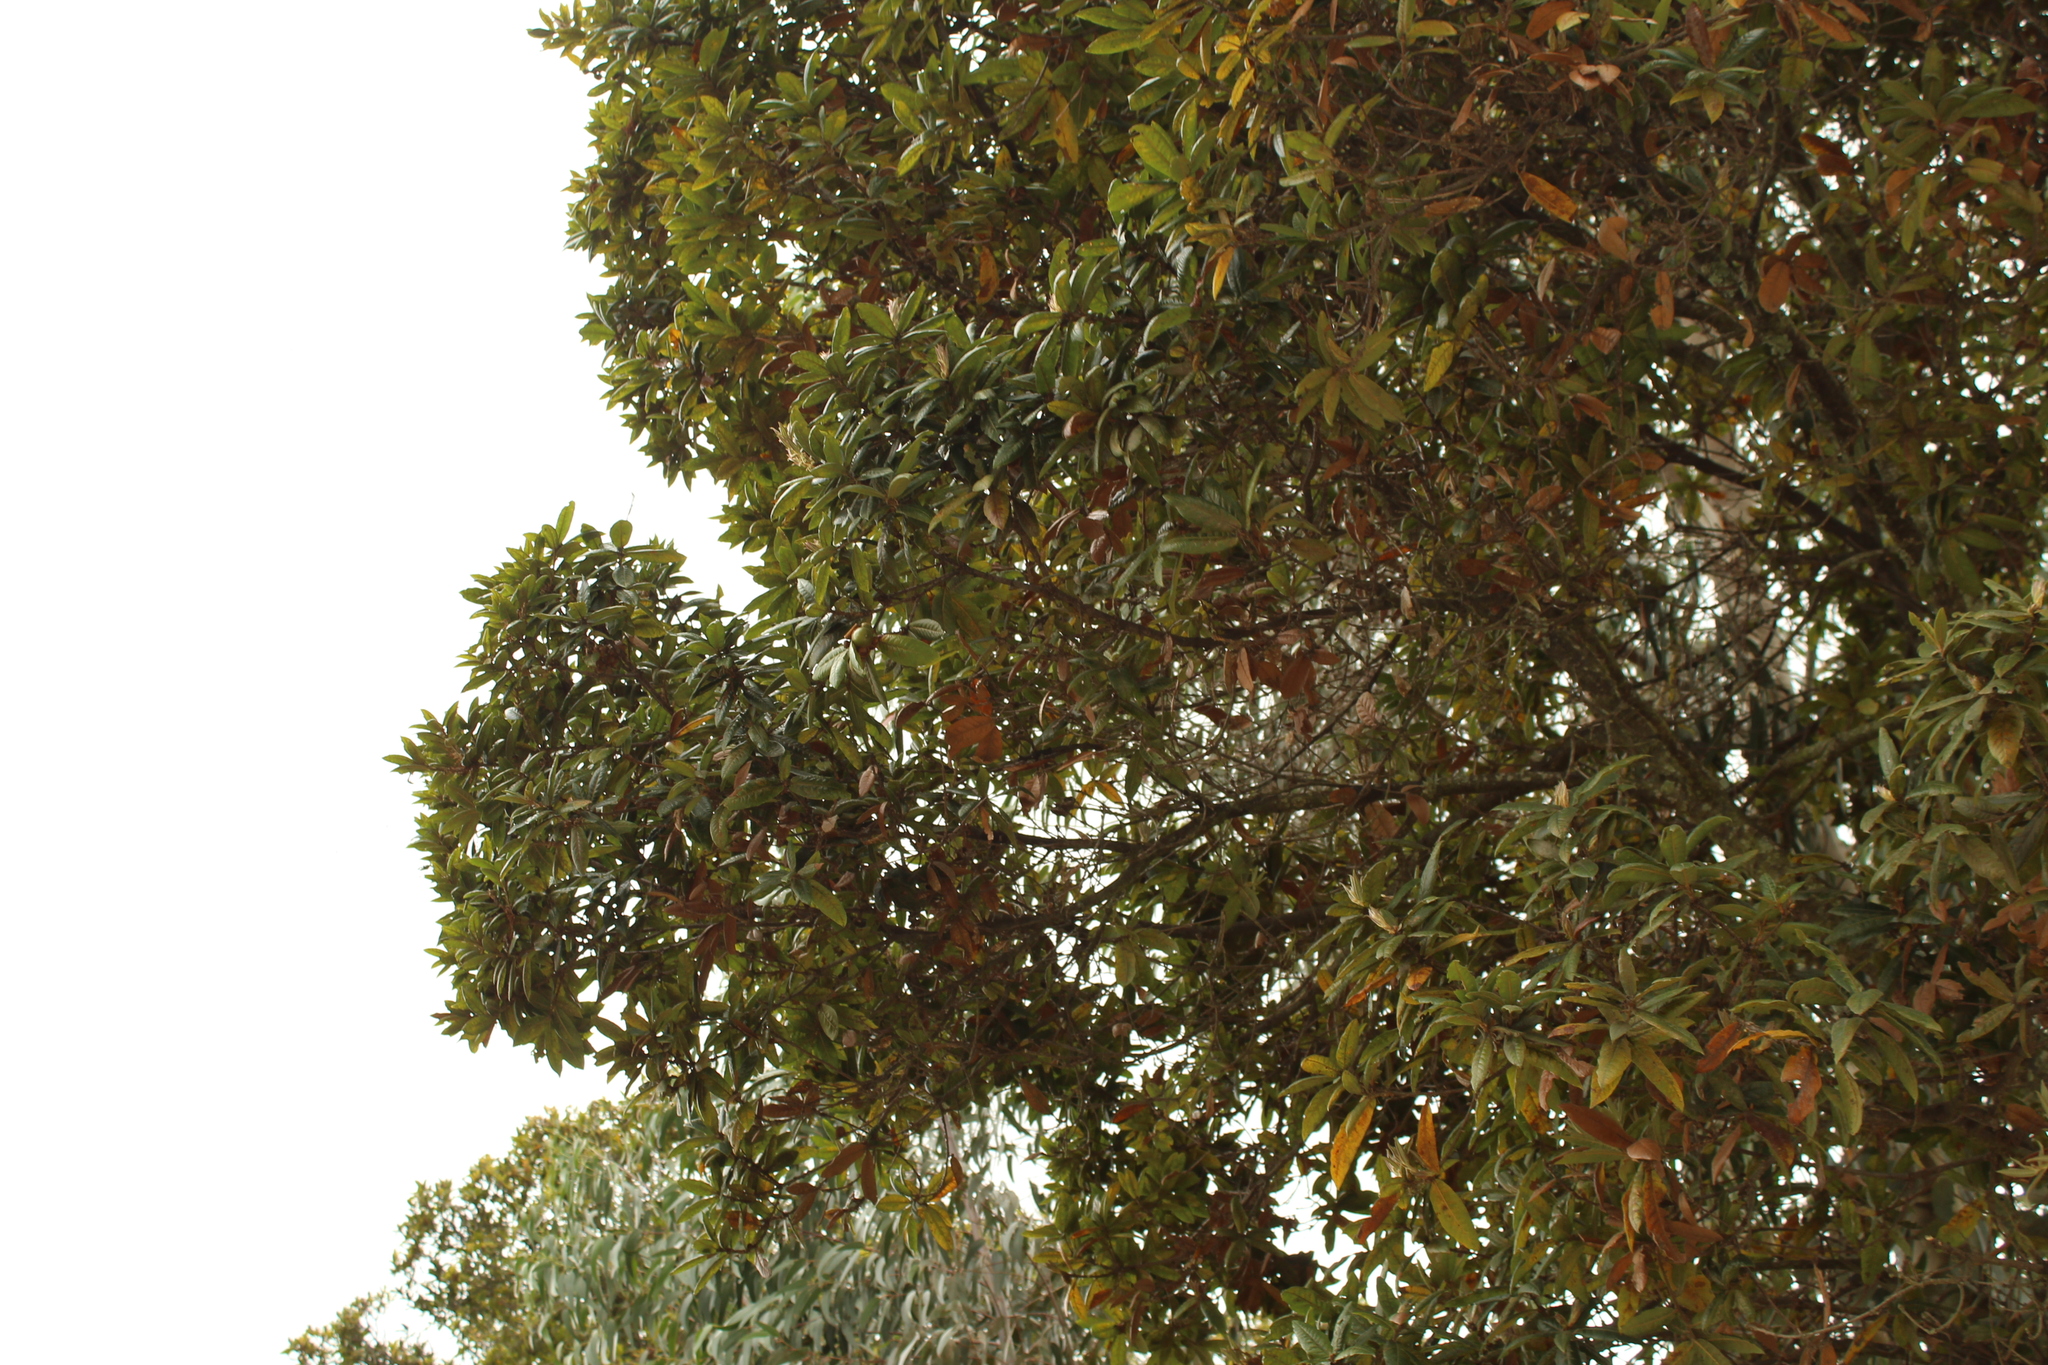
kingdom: Plantae
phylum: Tracheophyta
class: Magnoliopsida
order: Fagales
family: Fagaceae
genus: Quercus
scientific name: Quercus humboldtii
